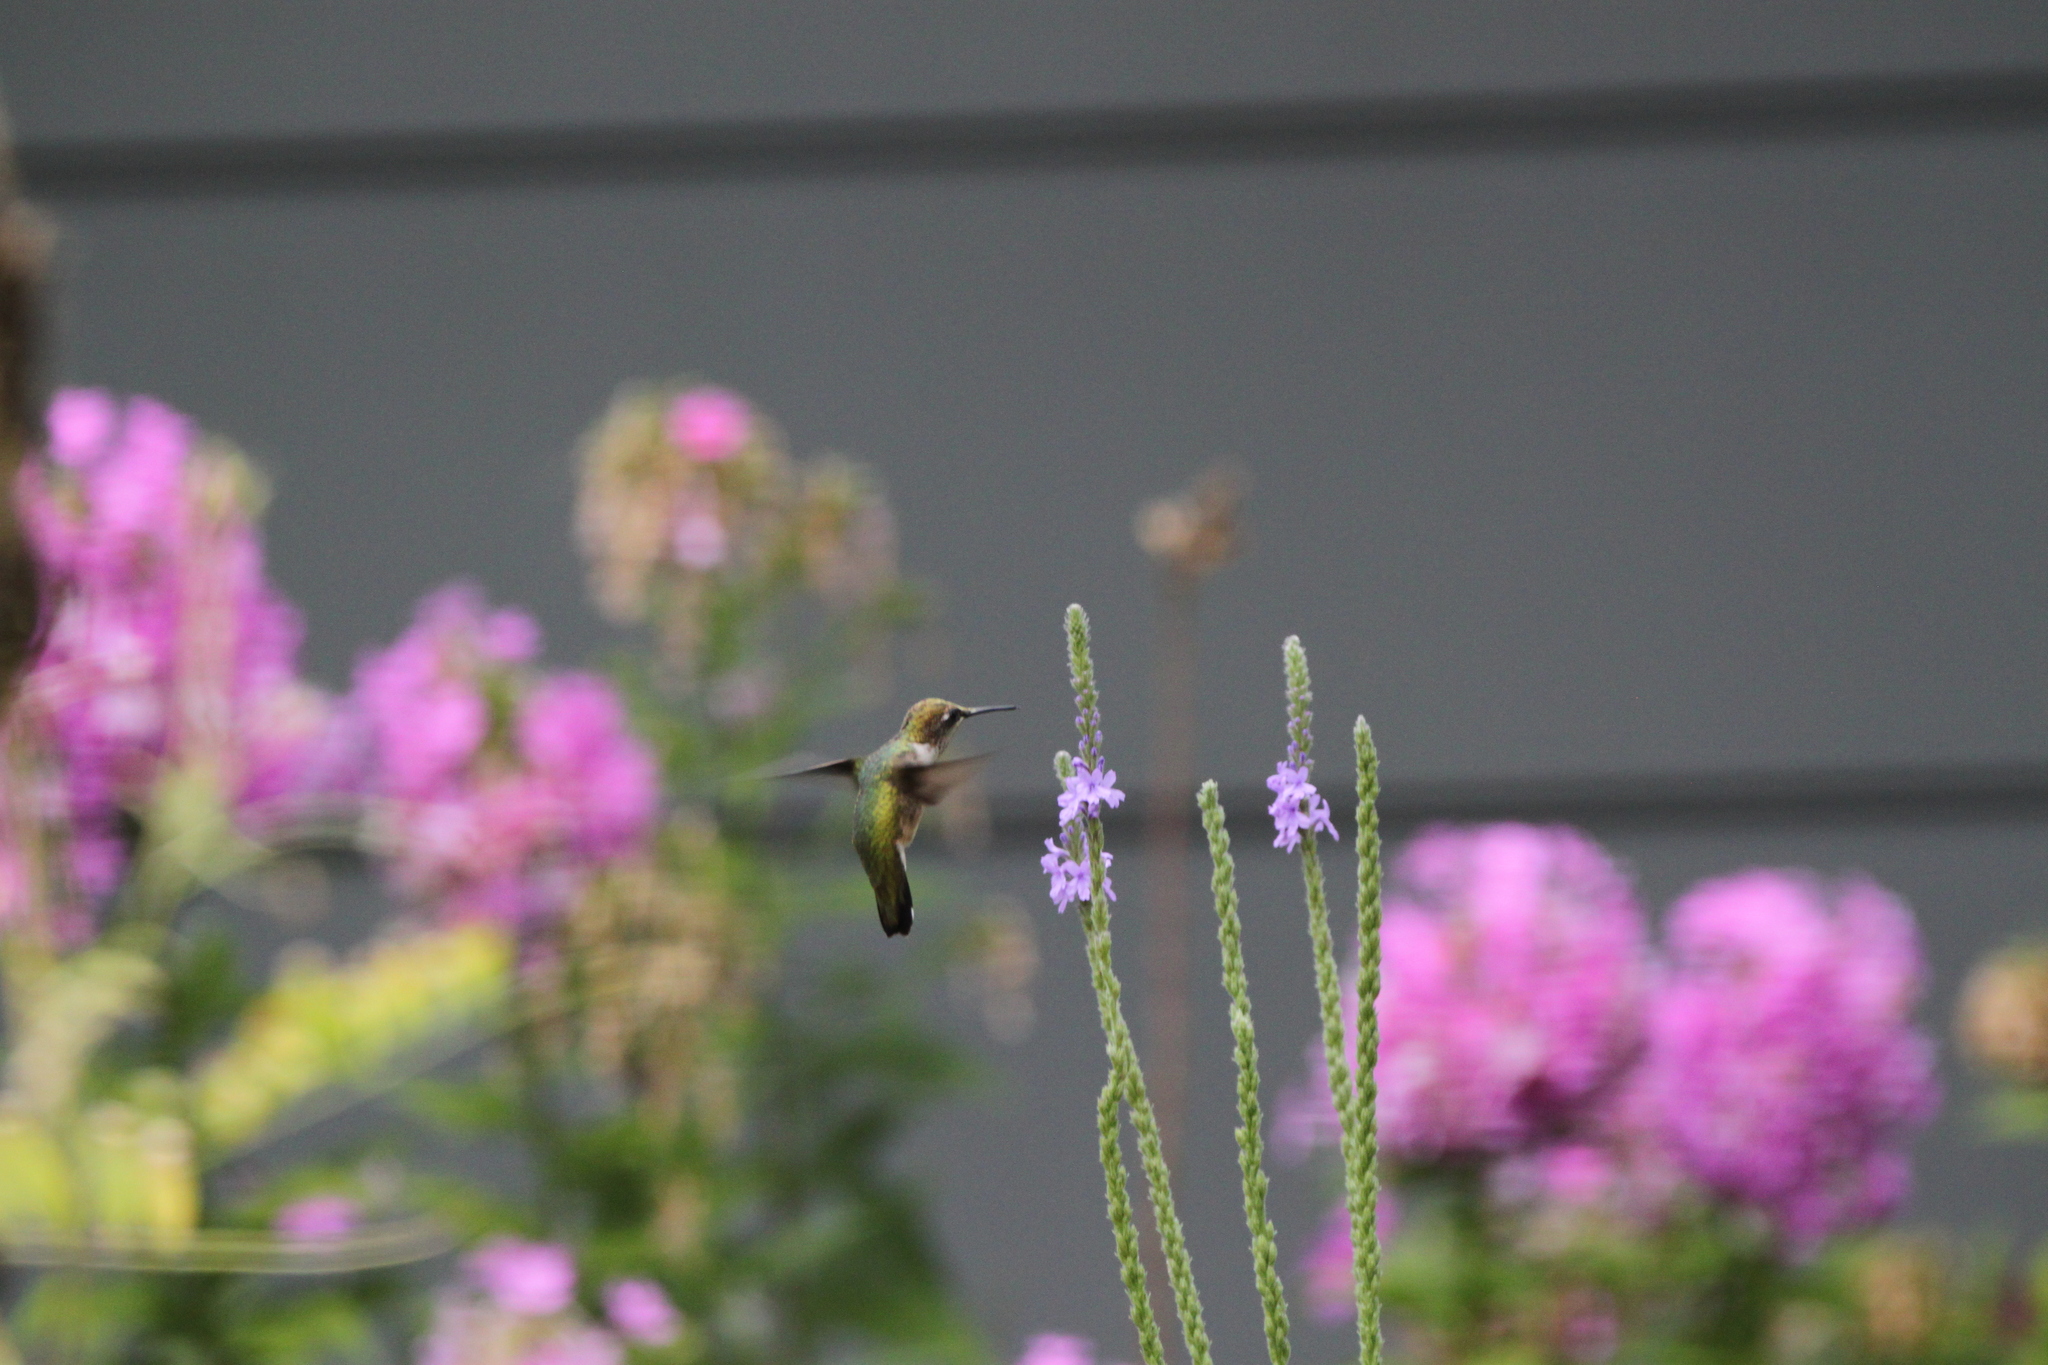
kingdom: Animalia
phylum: Chordata
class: Aves
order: Apodiformes
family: Trochilidae
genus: Archilochus
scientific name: Archilochus colubris
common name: Ruby-throated hummingbird
